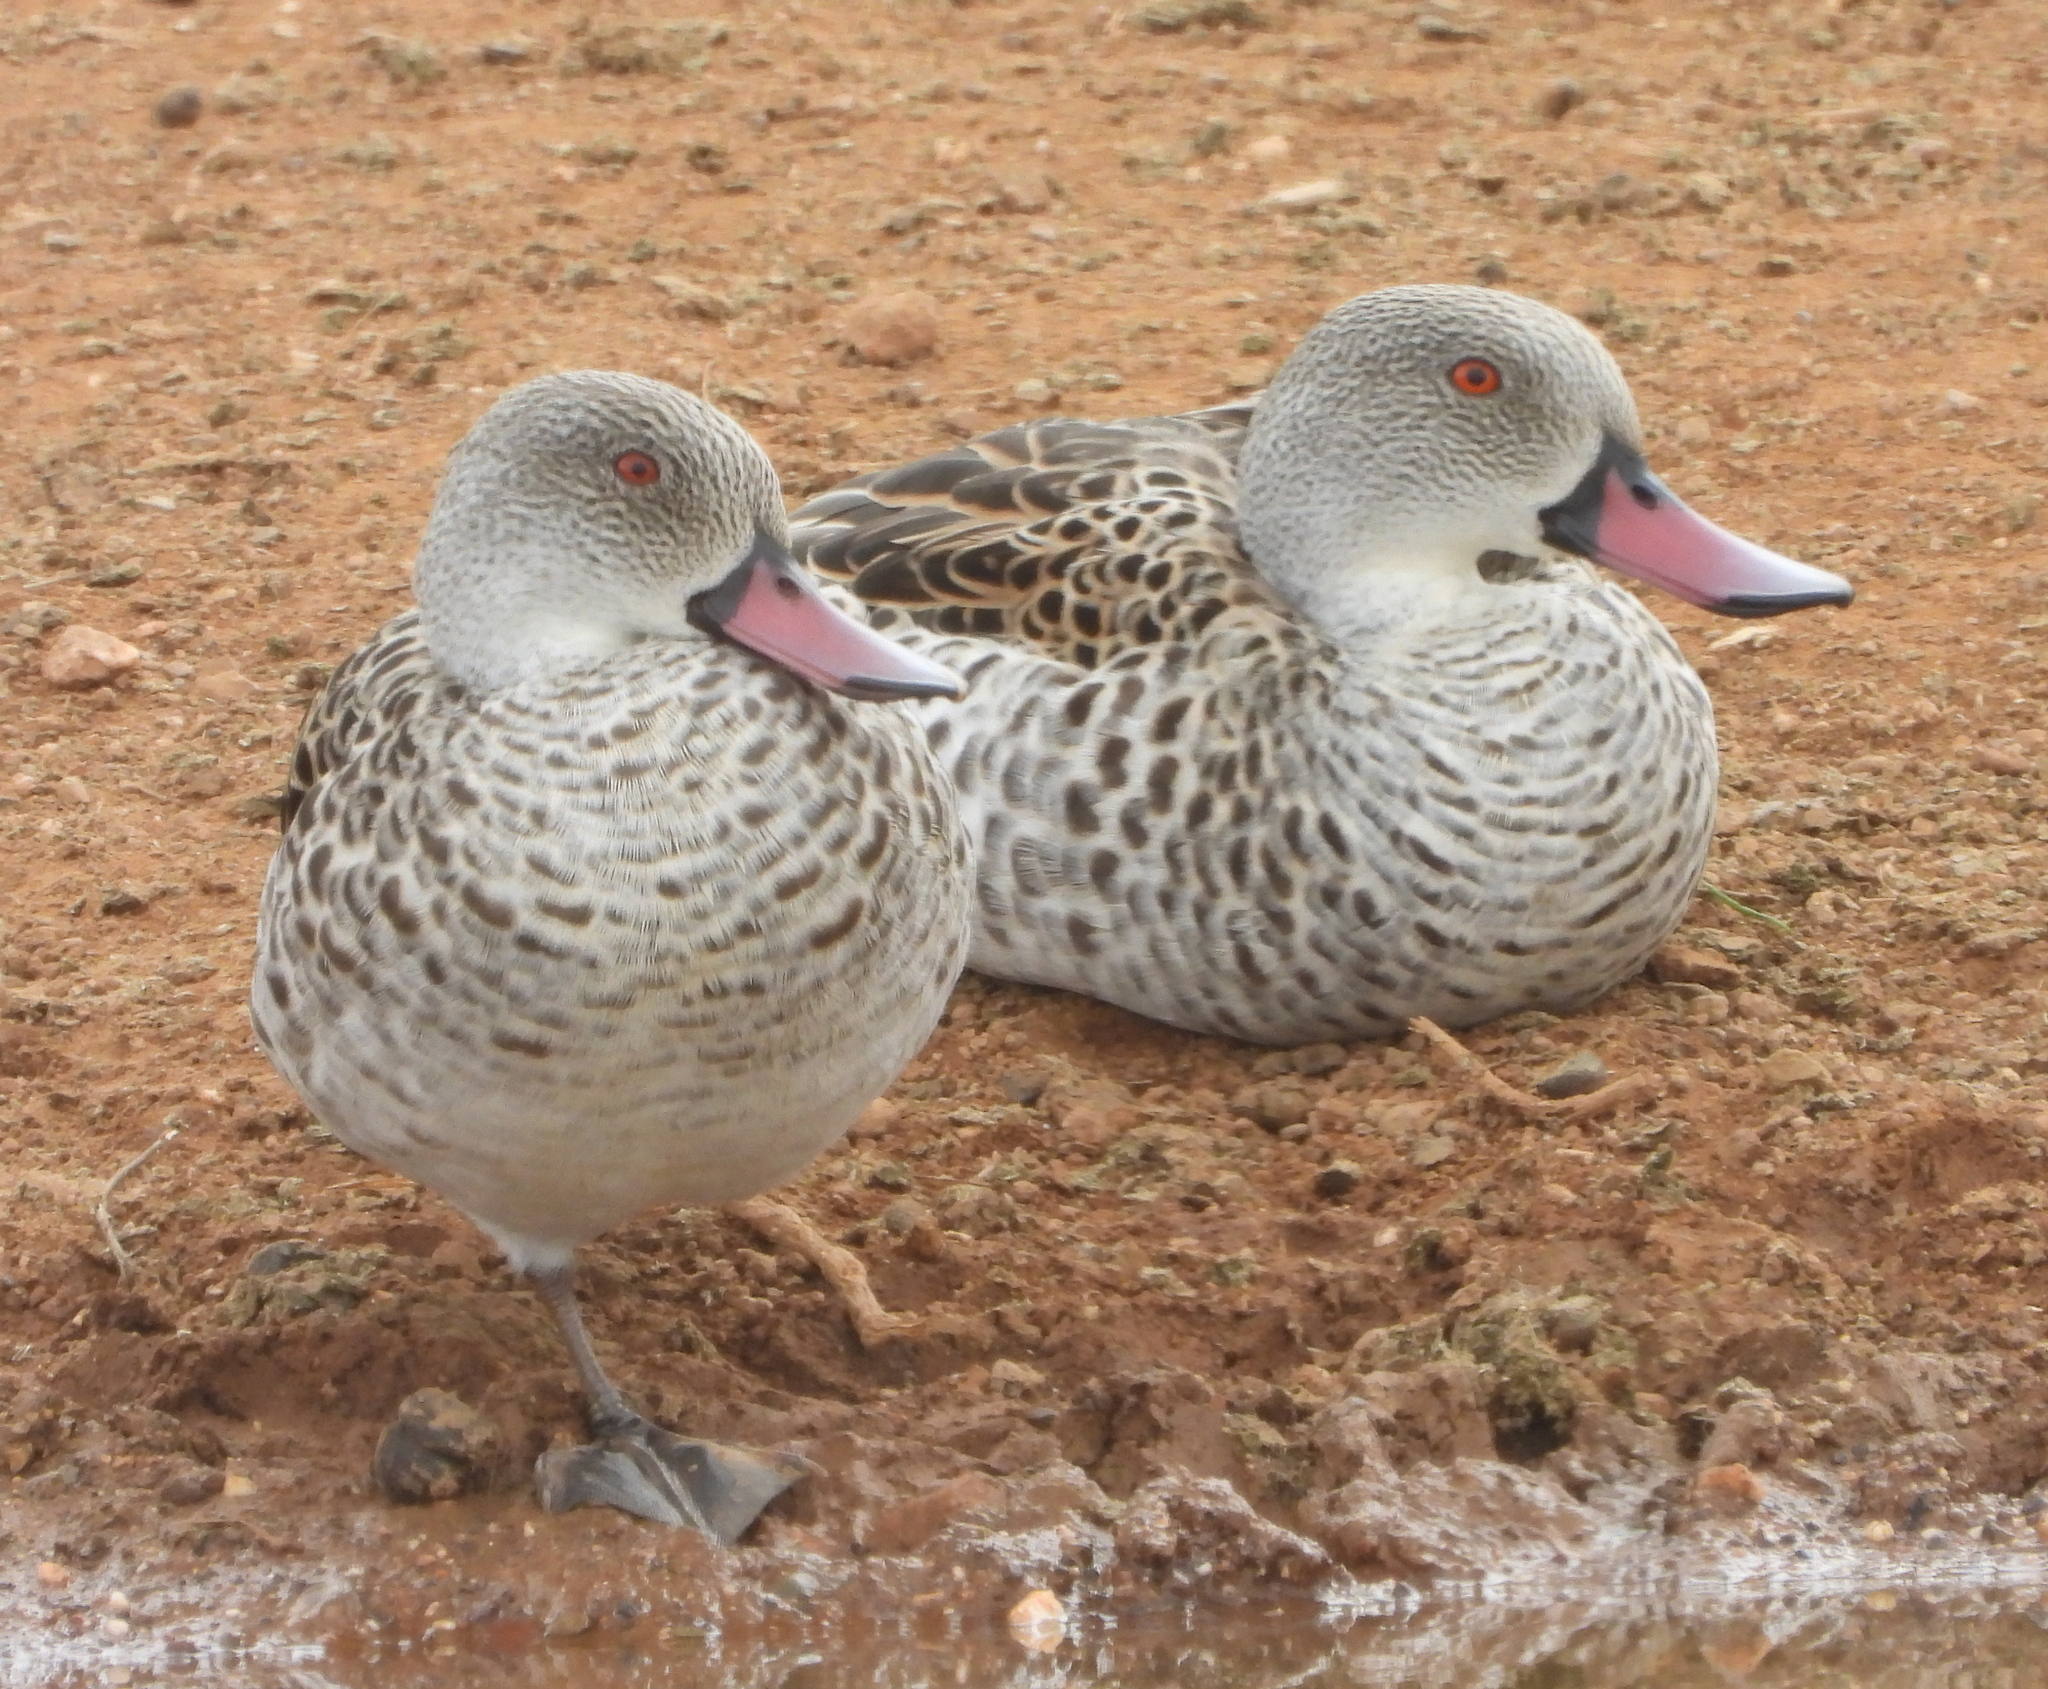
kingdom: Animalia
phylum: Chordata
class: Aves
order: Anseriformes
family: Anatidae
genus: Anas
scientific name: Anas capensis
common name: Cape teal
